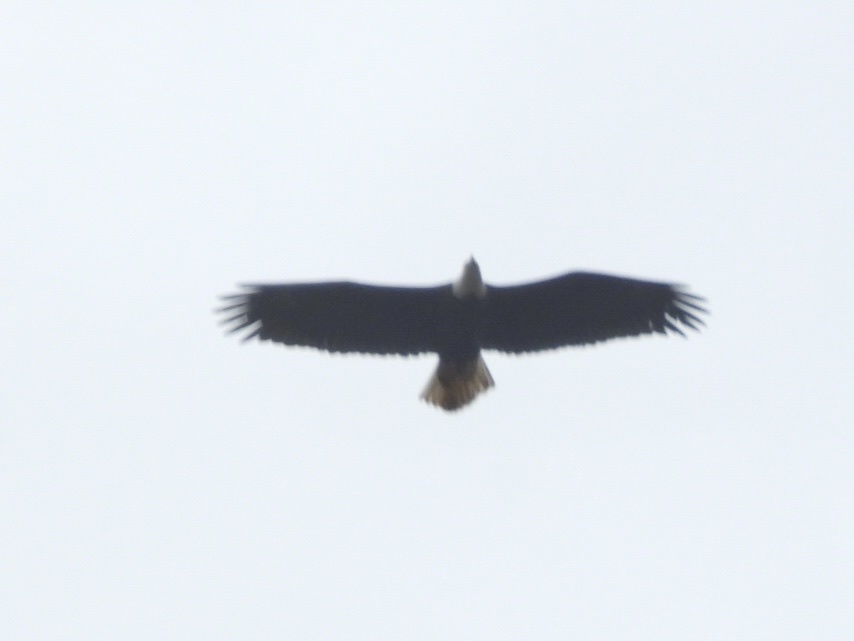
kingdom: Animalia
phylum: Chordata
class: Aves
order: Accipitriformes
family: Accipitridae
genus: Haliaeetus
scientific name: Haliaeetus leucocephalus
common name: Bald eagle
